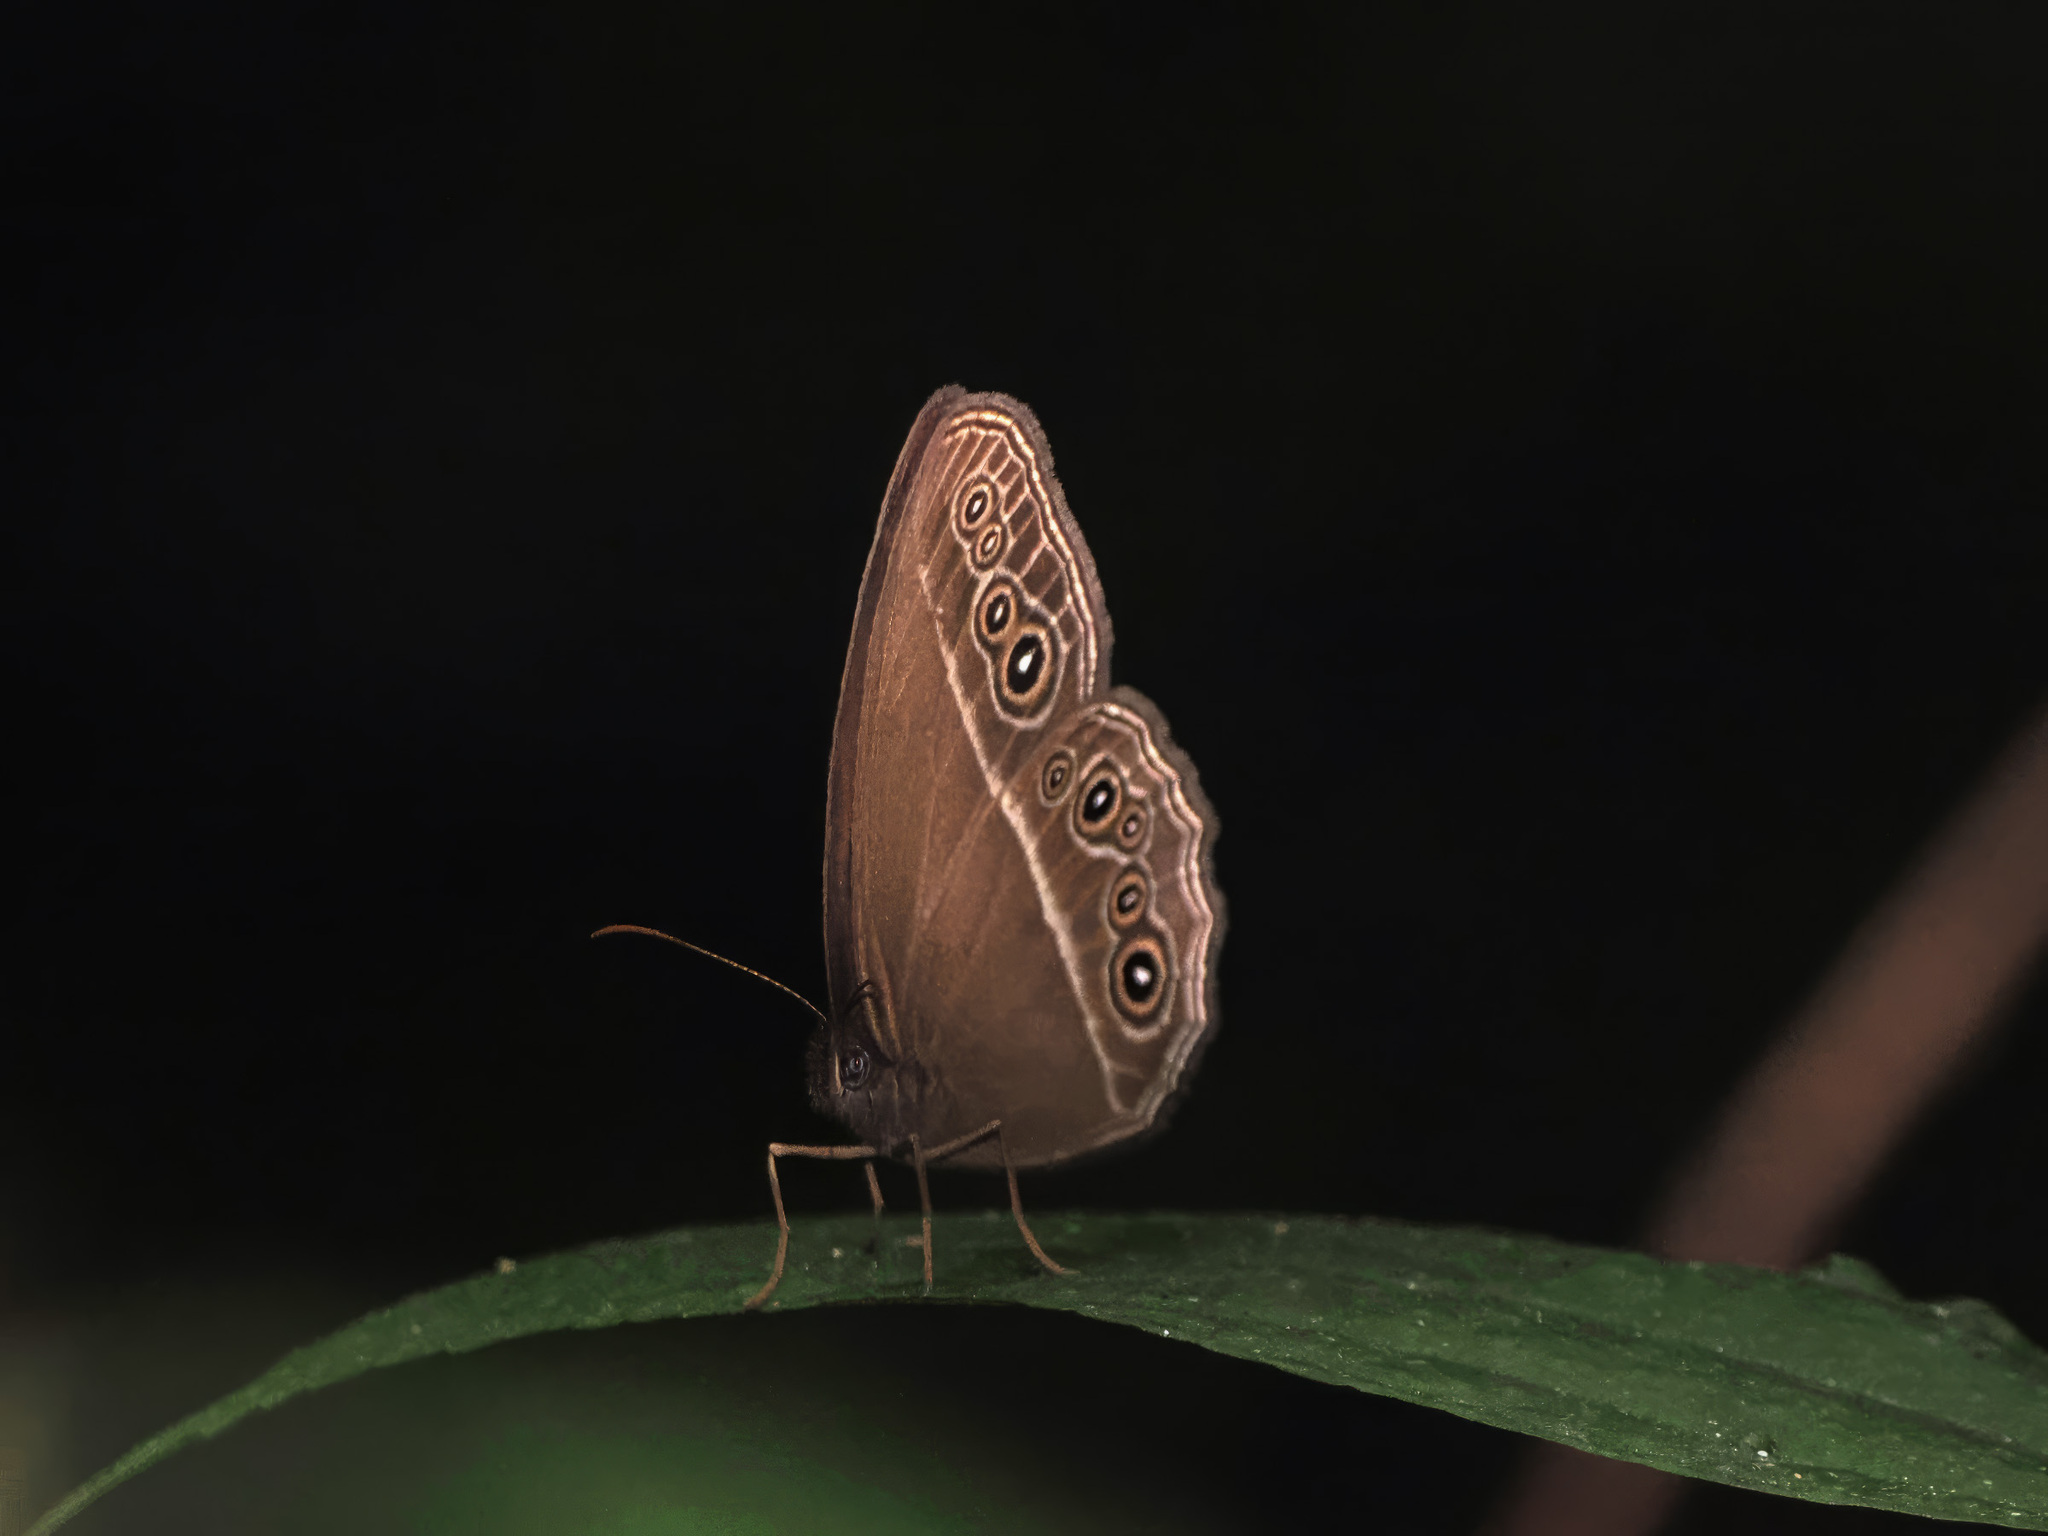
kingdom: Animalia
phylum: Arthropoda
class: Insecta
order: Lepidoptera
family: Nymphalidae
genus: Orsotriaena
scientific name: Orsotriaena jopas
